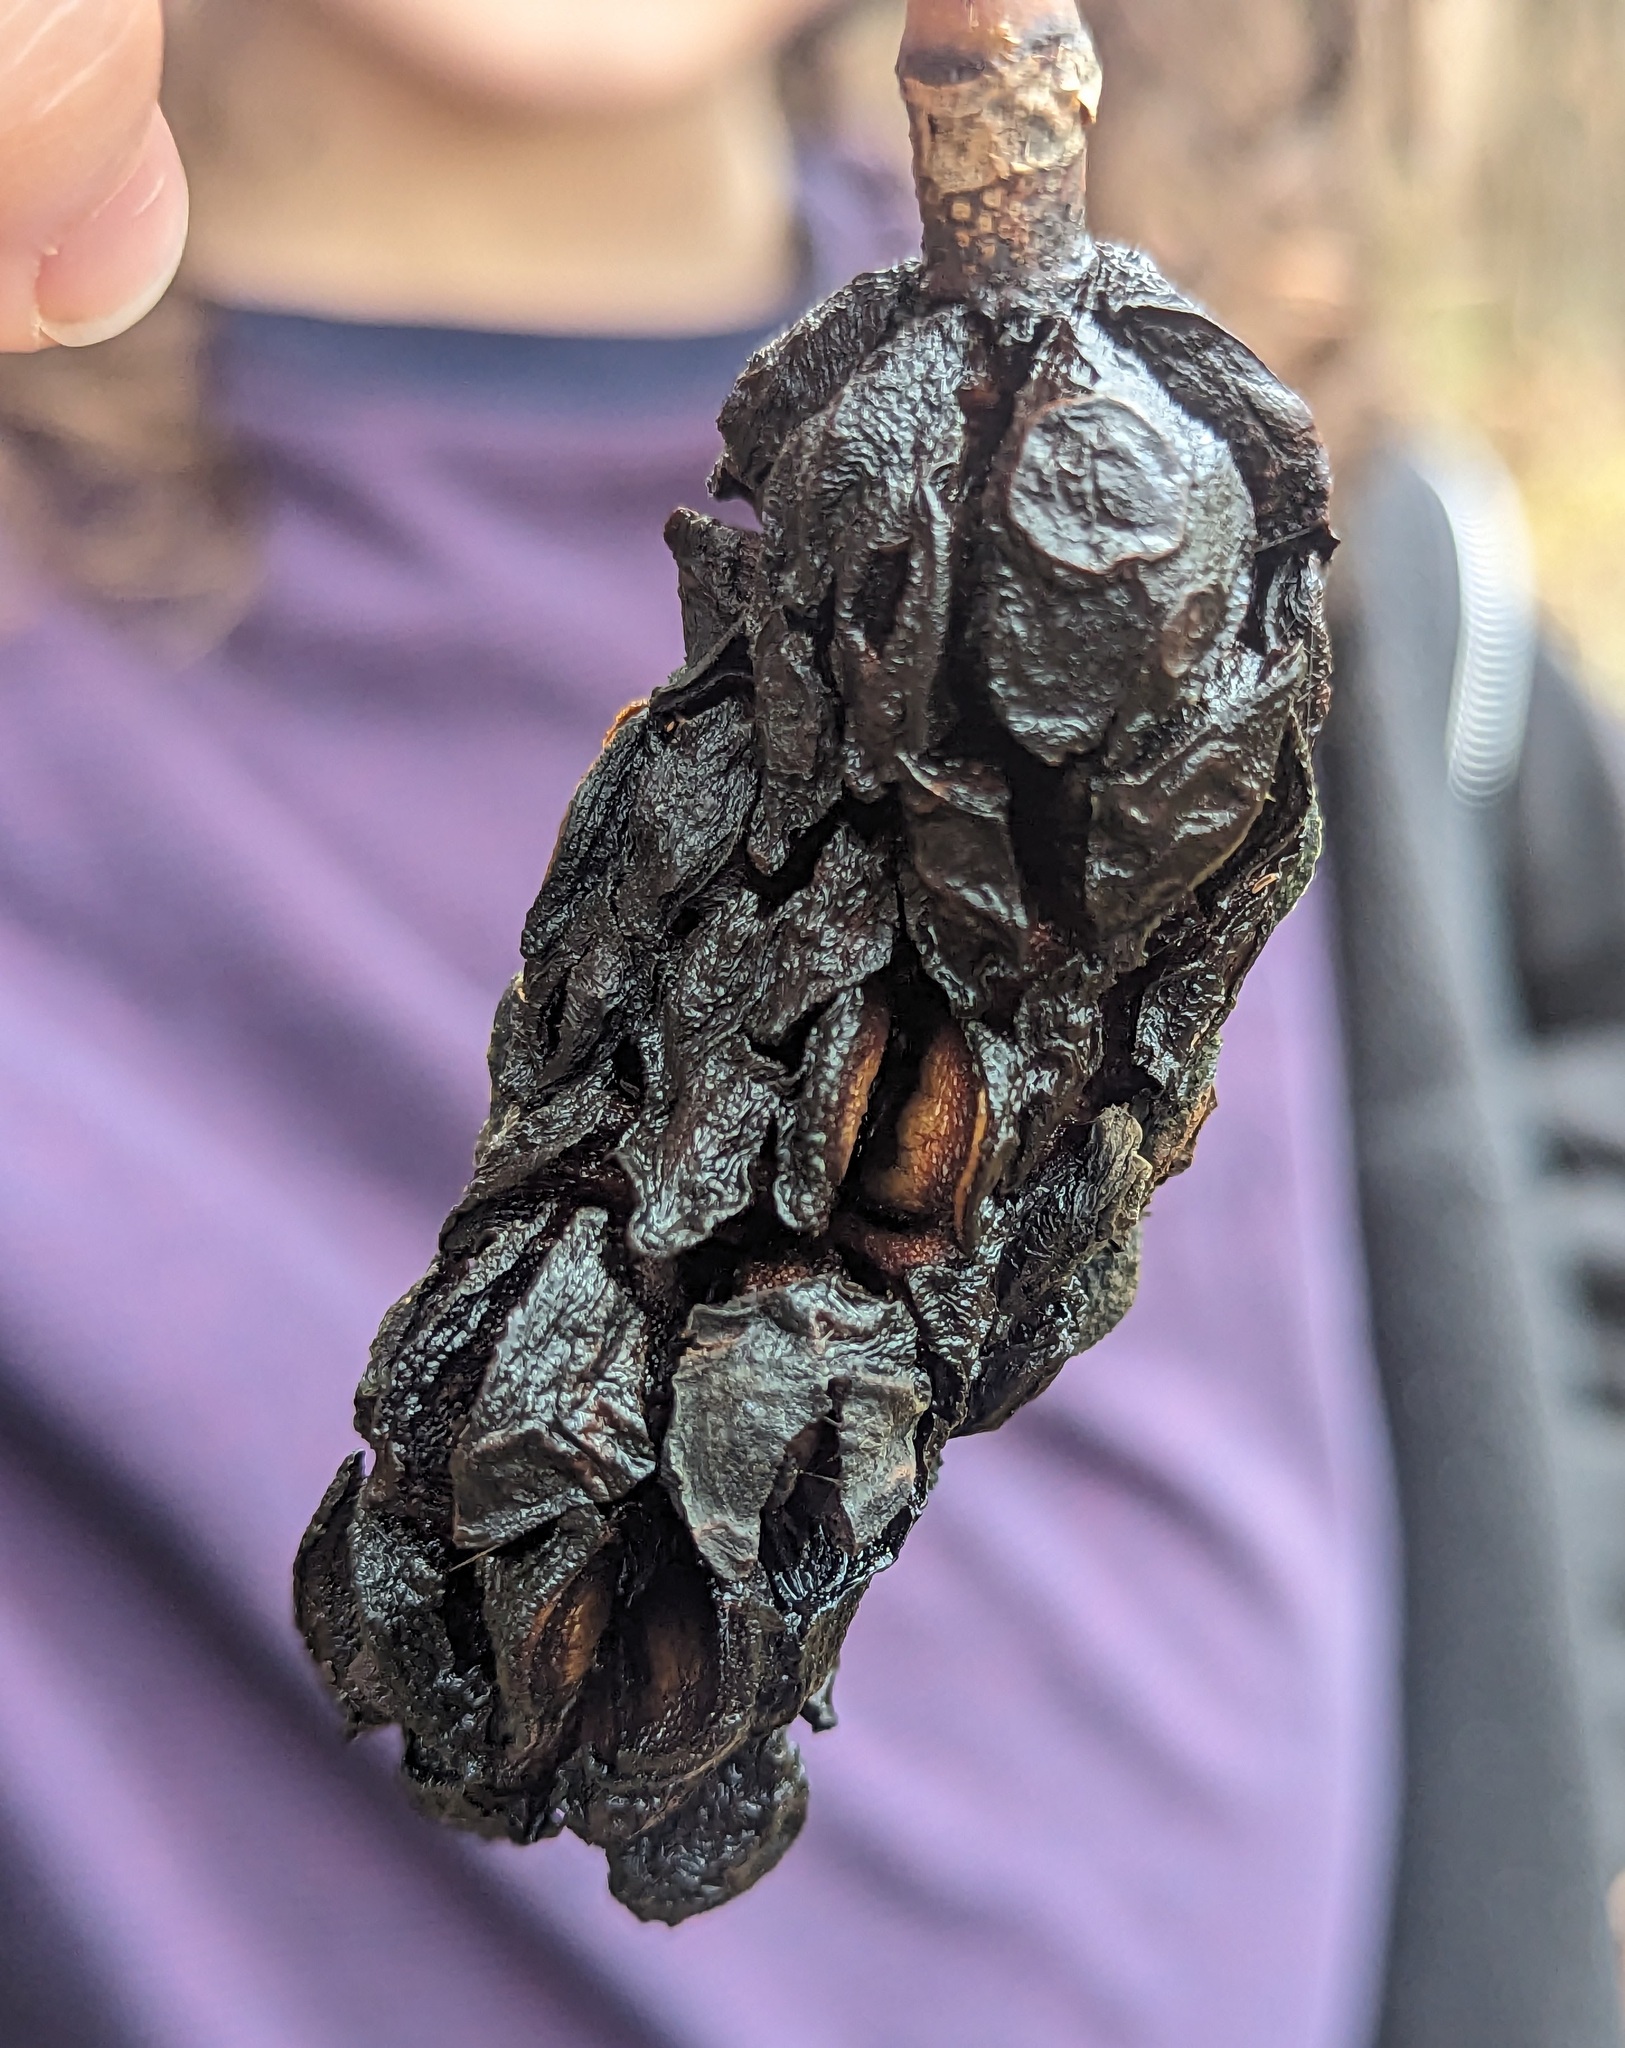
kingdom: Plantae
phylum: Tracheophyta
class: Magnoliopsida
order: Magnoliales
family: Magnoliaceae
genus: Magnolia
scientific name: Magnolia acuminata
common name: Cucumber magnolia
